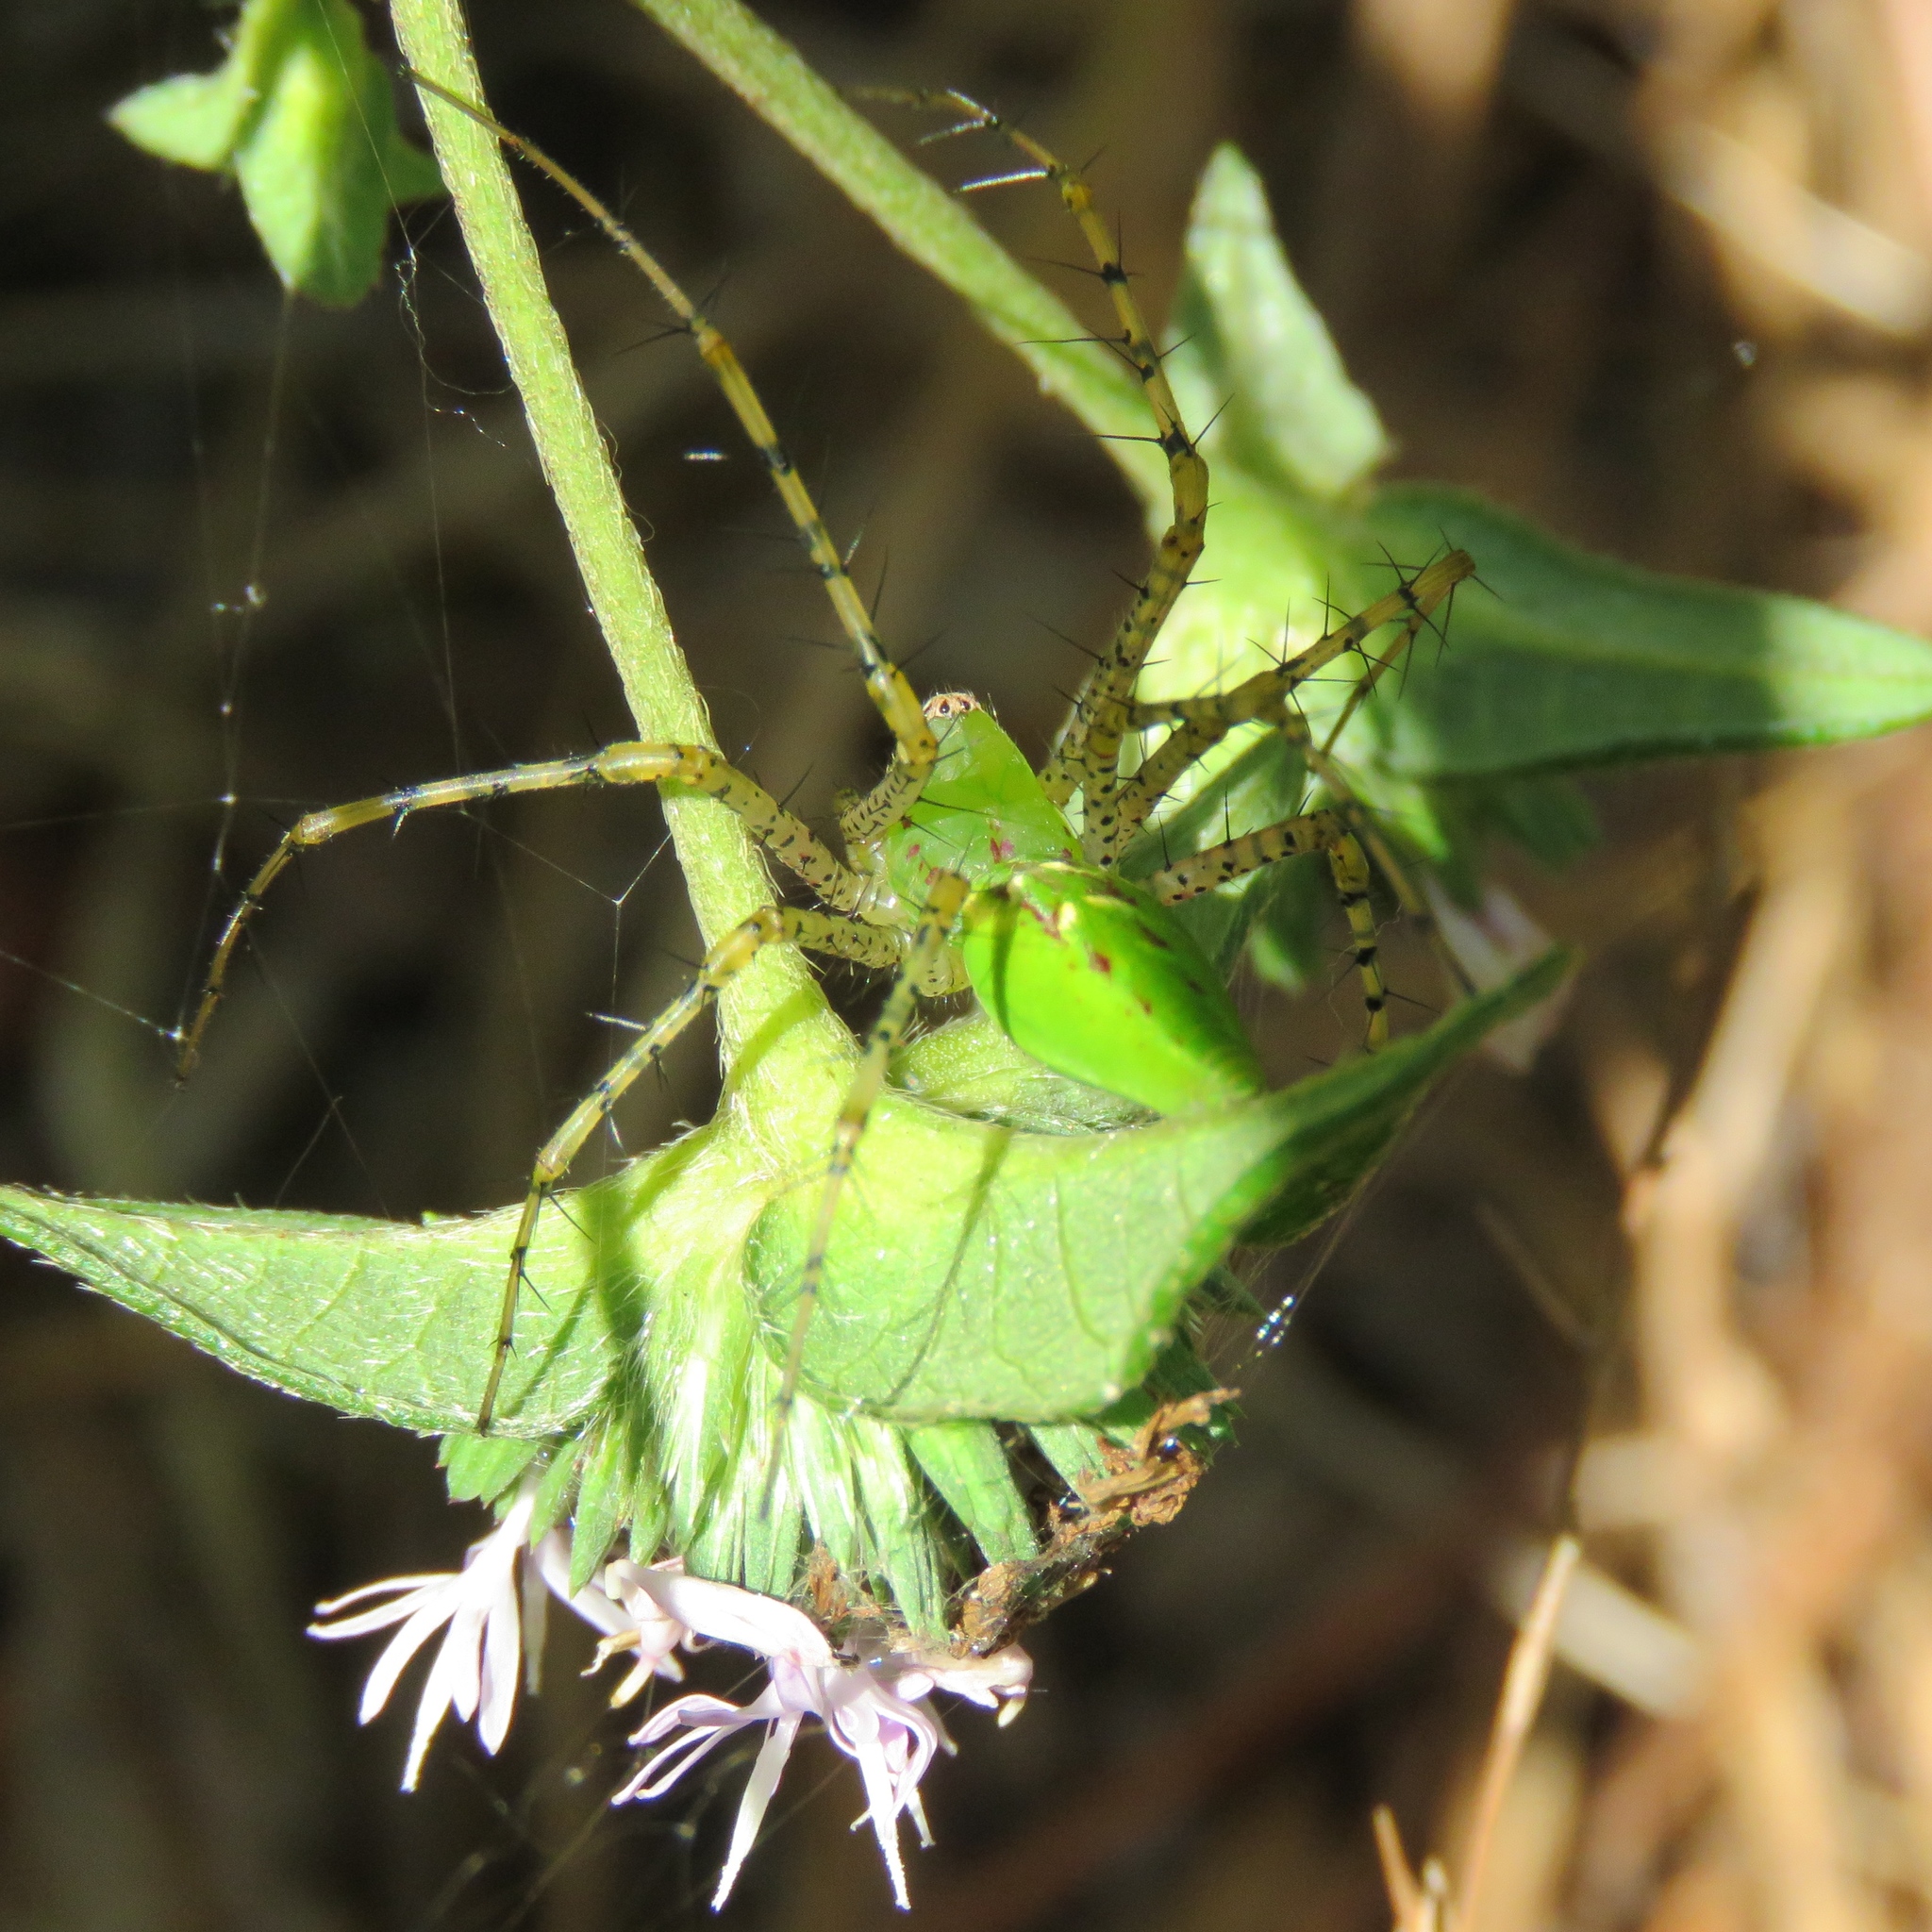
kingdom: Animalia
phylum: Arthropoda
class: Arachnida
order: Araneae
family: Oxyopidae
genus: Peucetia
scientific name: Peucetia viridans
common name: Lynx spiders
